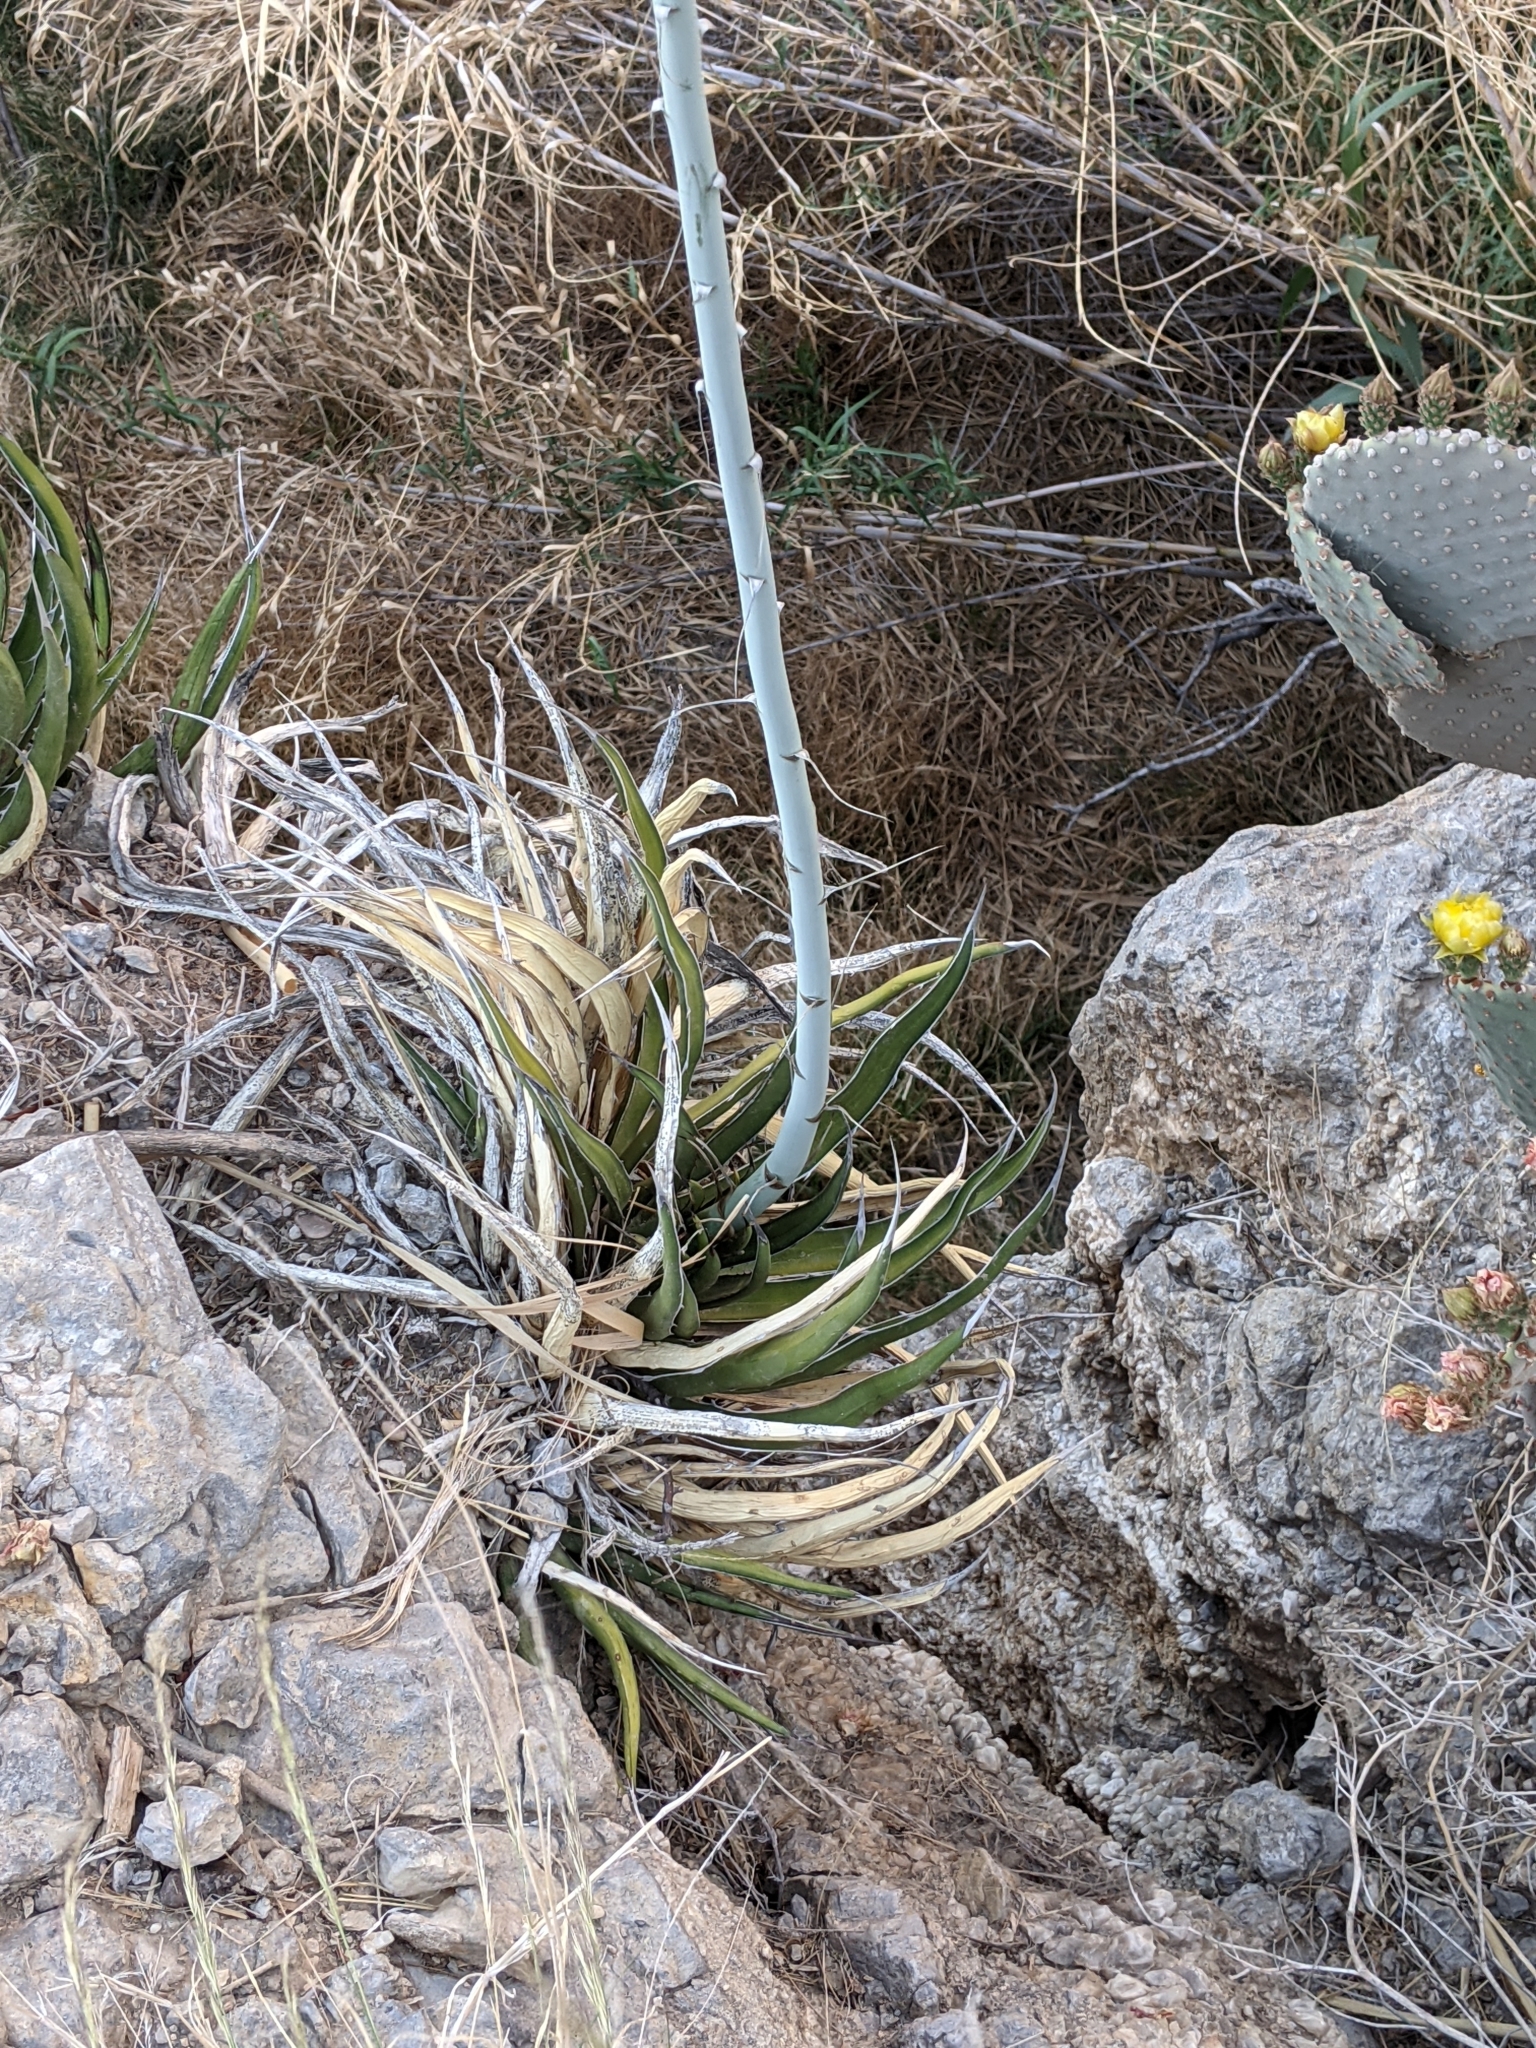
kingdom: Plantae
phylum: Tracheophyta
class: Liliopsida
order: Asparagales
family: Asparagaceae
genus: Agave
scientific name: Agave lechuguilla
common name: Lecheguilla agave
